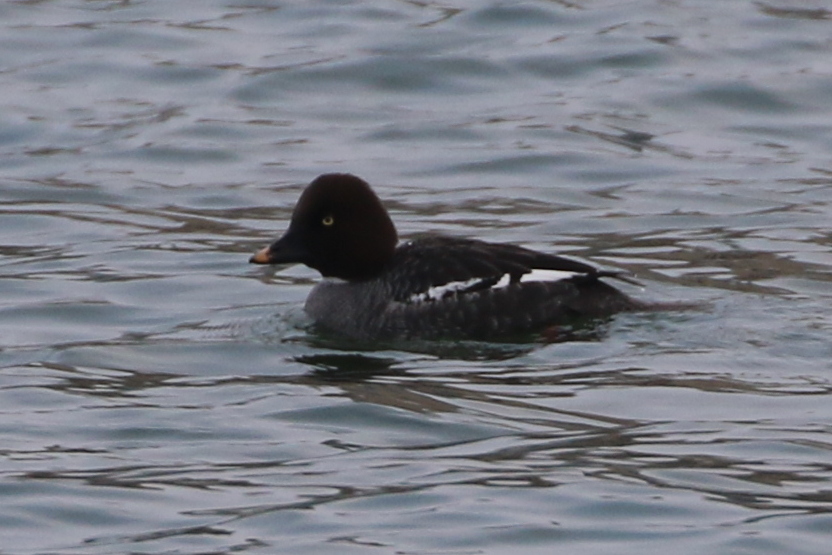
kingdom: Animalia
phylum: Chordata
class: Aves
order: Anseriformes
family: Anatidae
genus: Bucephala
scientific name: Bucephala clangula
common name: Common goldeneye
